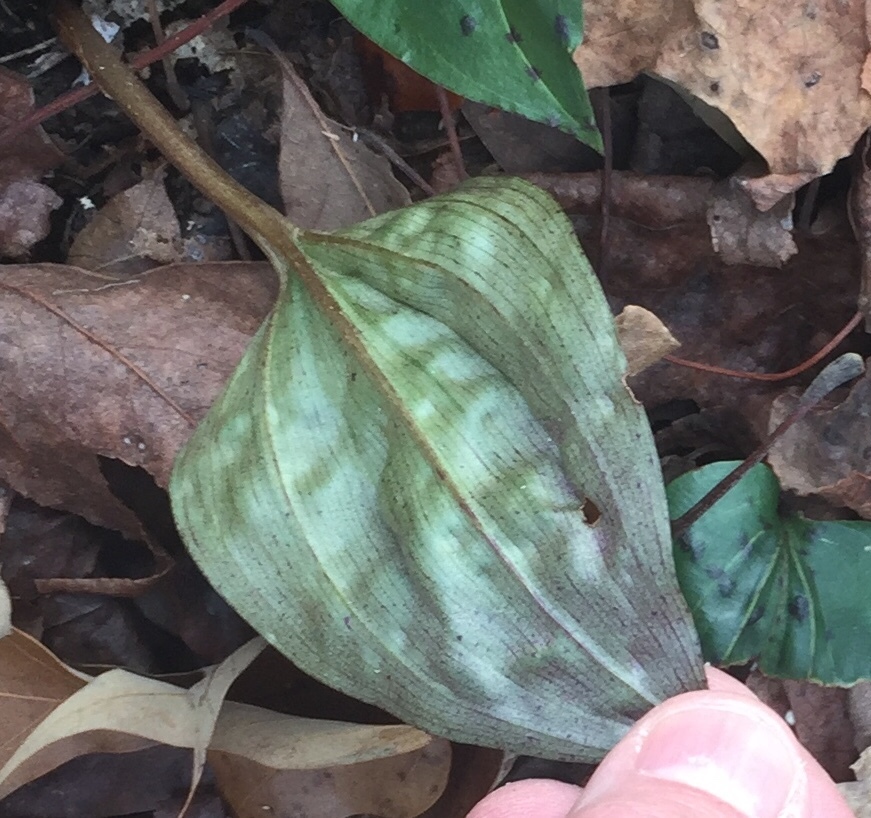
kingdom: Plantae
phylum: Tracheophyta
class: Liliopsida
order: Asparagales
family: Orchidaceae
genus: Tipularia
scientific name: Tipularia discolor
